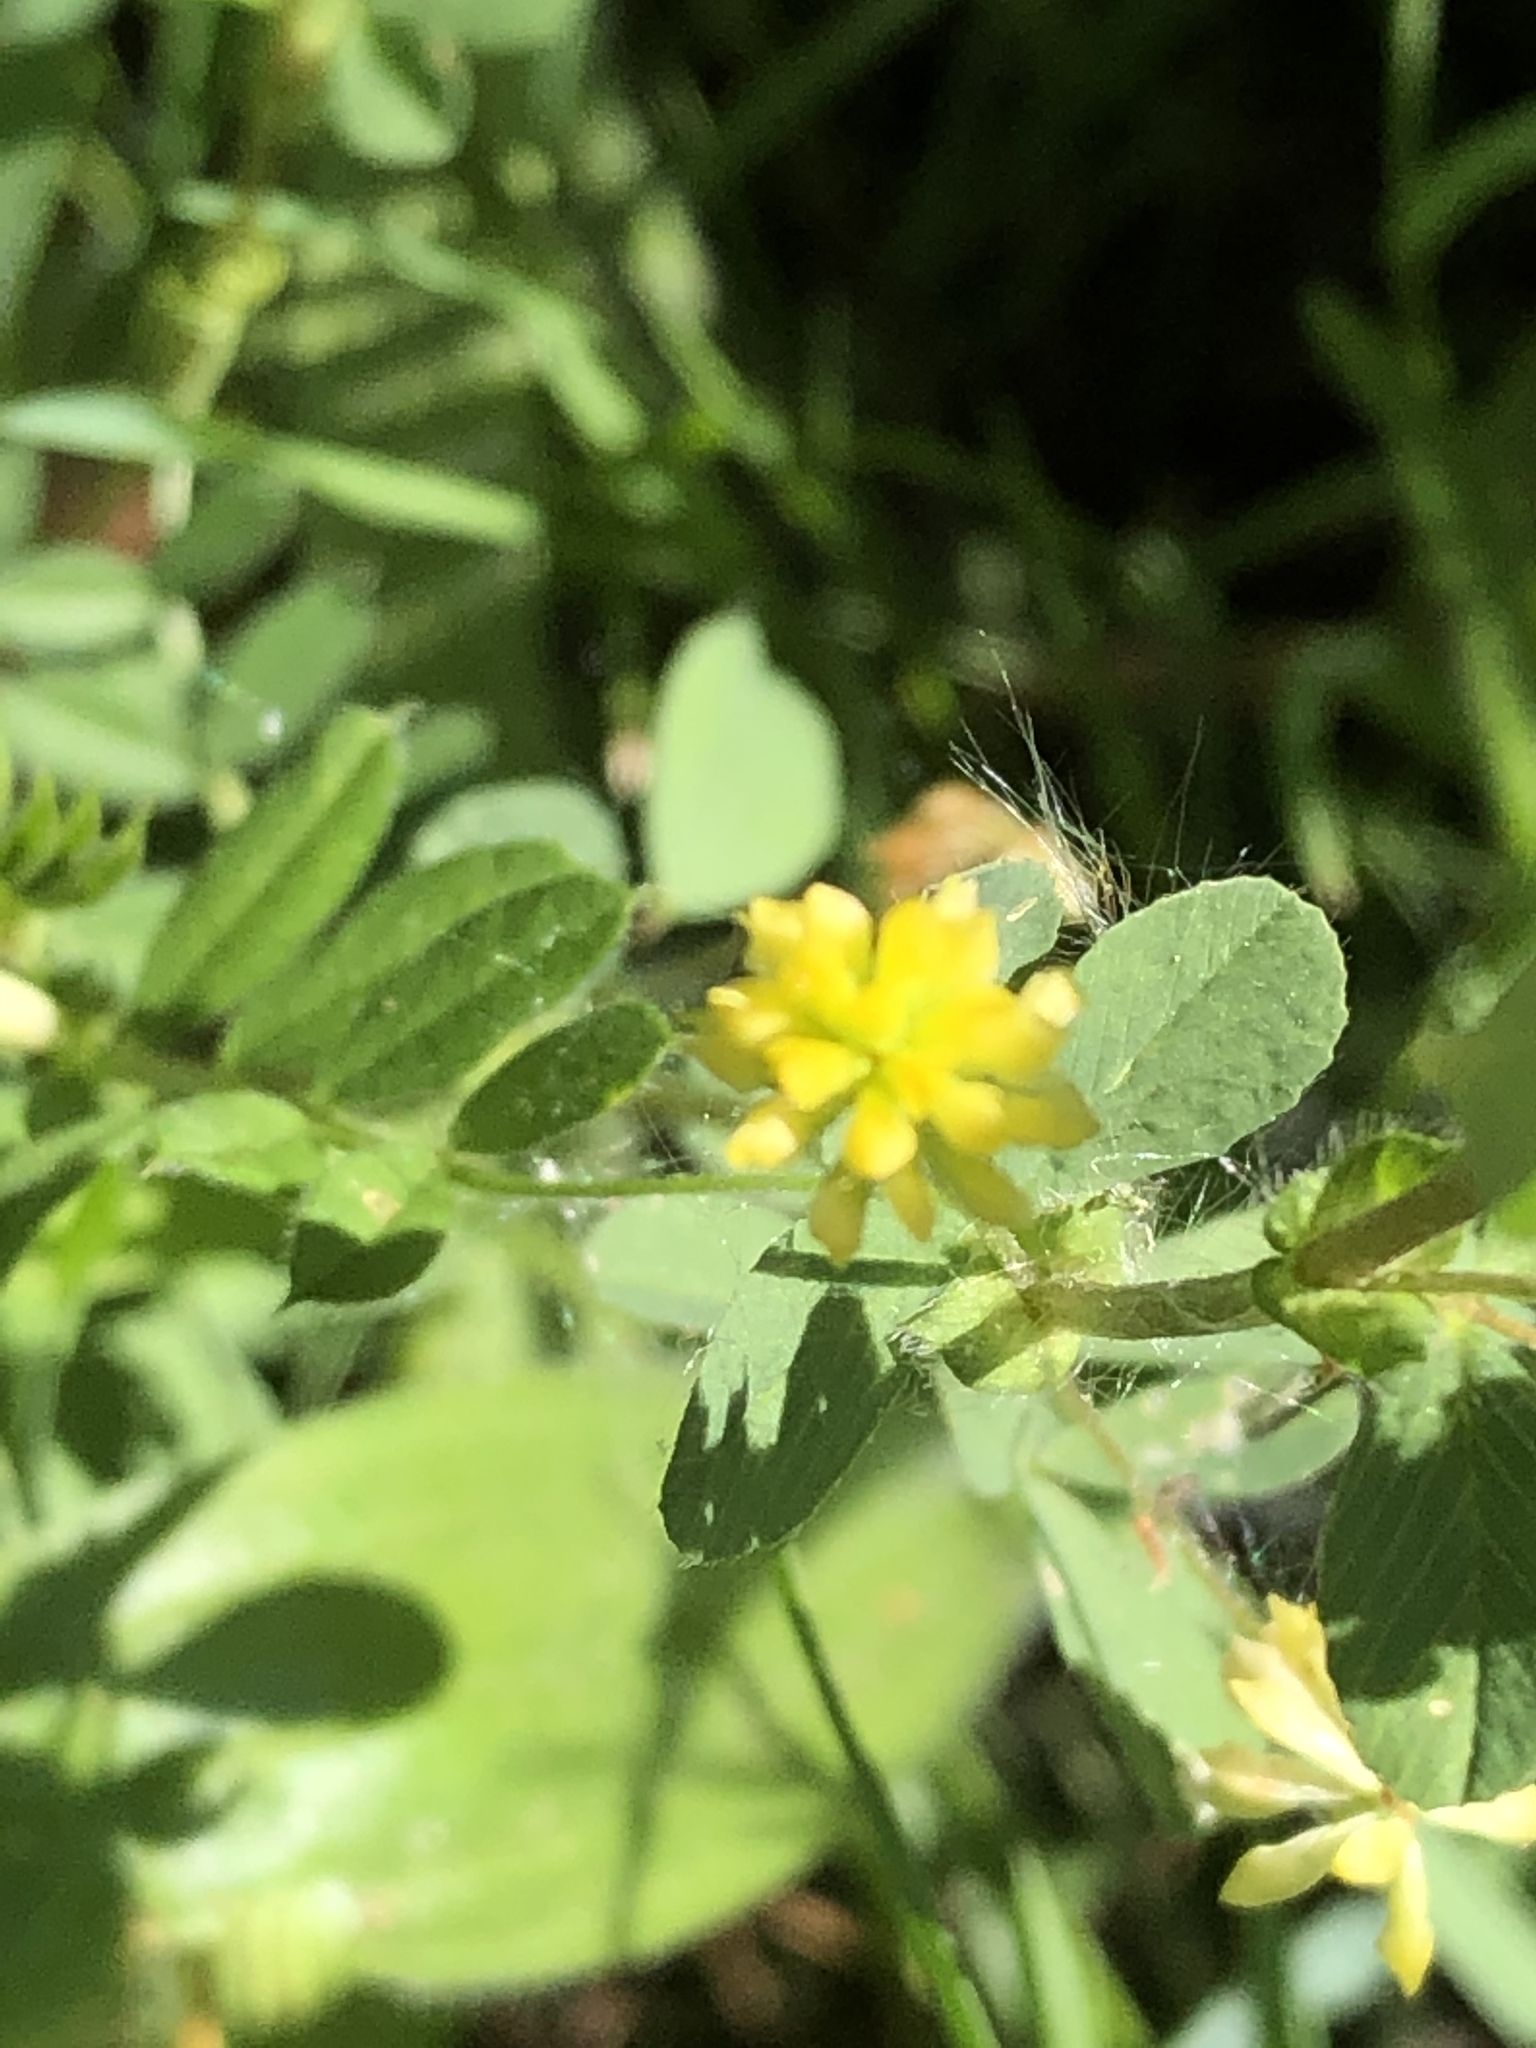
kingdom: Plantae
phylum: Tracheophyta
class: Magnoliopsida
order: Fabales
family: Fabaceae
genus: Trifolium
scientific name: Trifolium dubium
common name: Suckling clover
